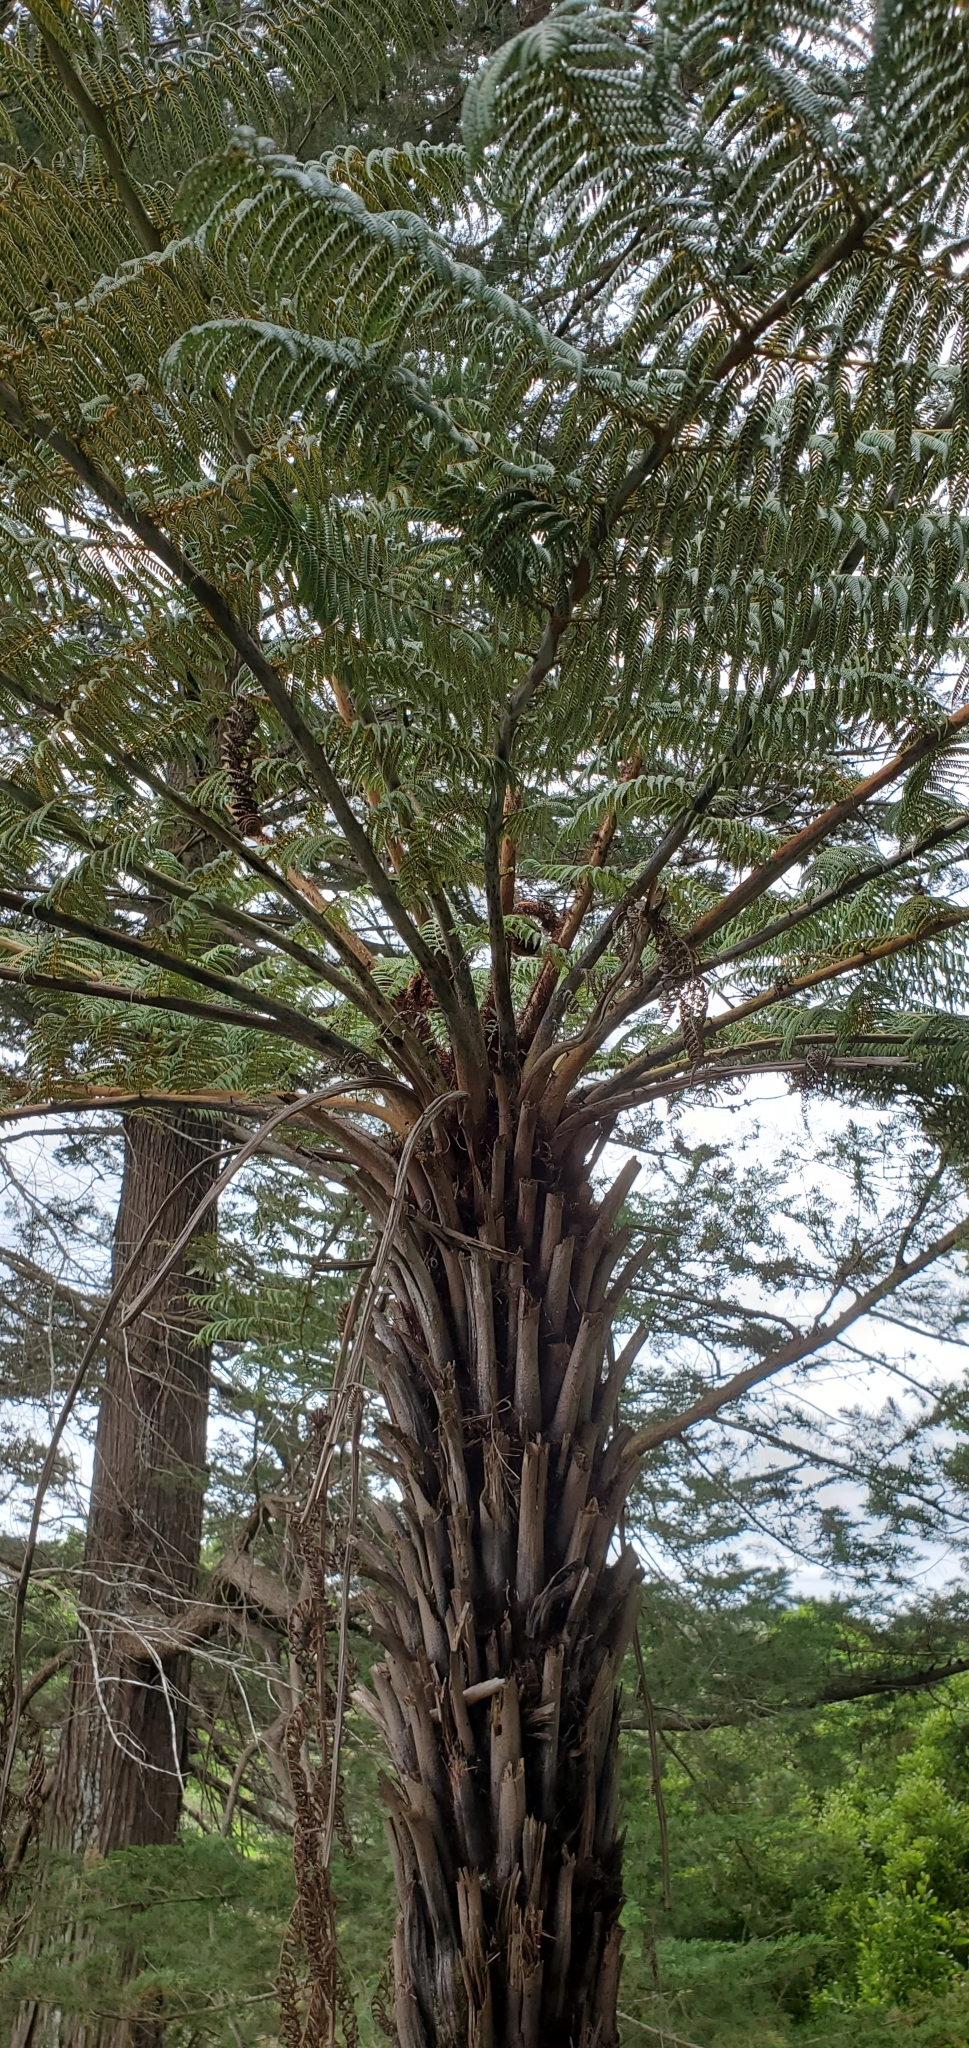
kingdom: Plantae
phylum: Tracheophyta
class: Polypodiopsida
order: Cyatheales
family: Cyatheaceae
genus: Alsophila
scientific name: Alsophila dealbata
